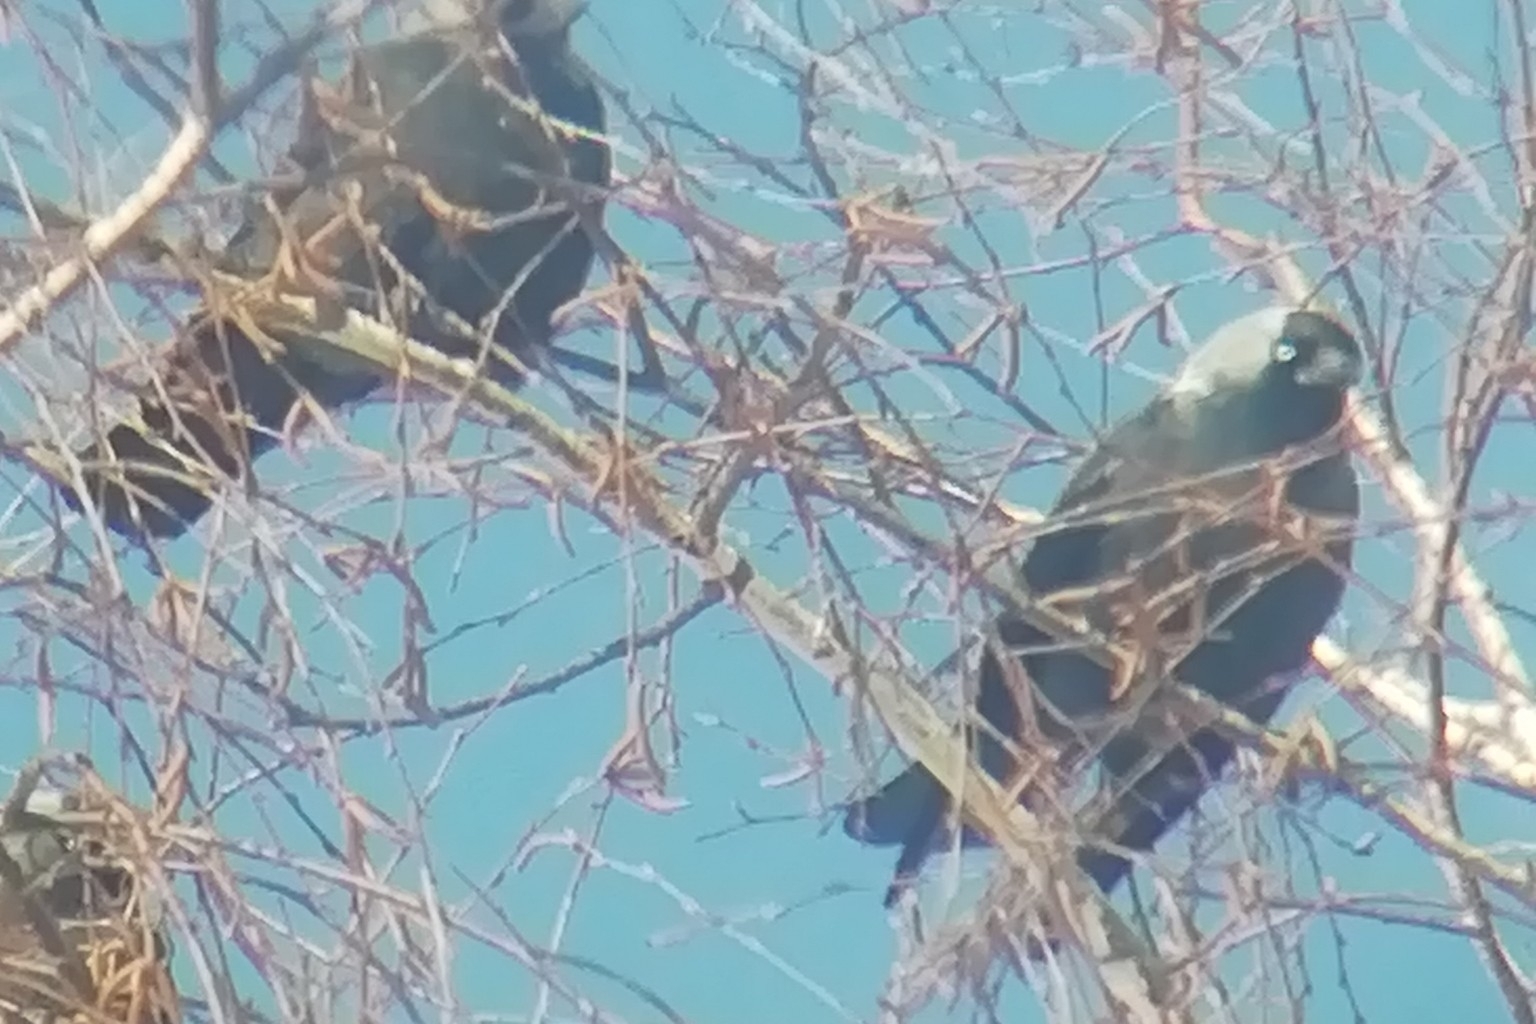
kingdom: Animalia
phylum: Chordata
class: Aves
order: Passeriformes
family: Corvidae
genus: Coloeus
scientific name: Coloeus monedula
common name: Western jackdaw
